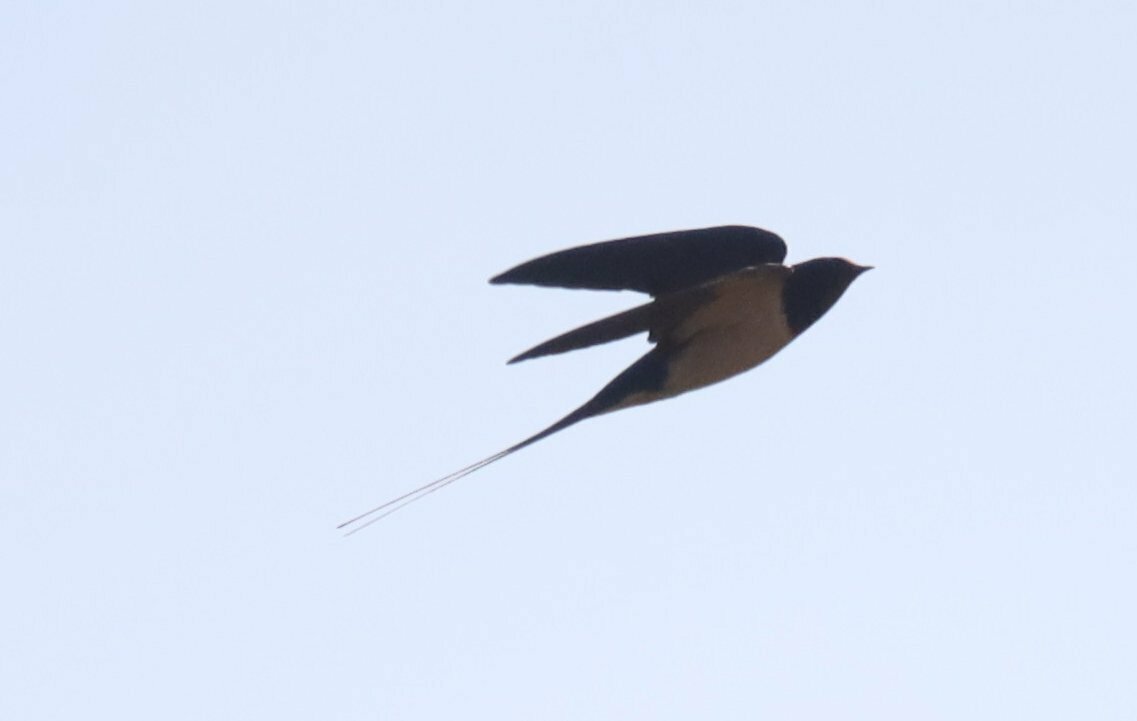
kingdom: Animalia
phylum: Chordata
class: Aves
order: Passeriformes
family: Hirundinidae
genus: Hirundo
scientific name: Hirundo rustica
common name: Barn swallow
